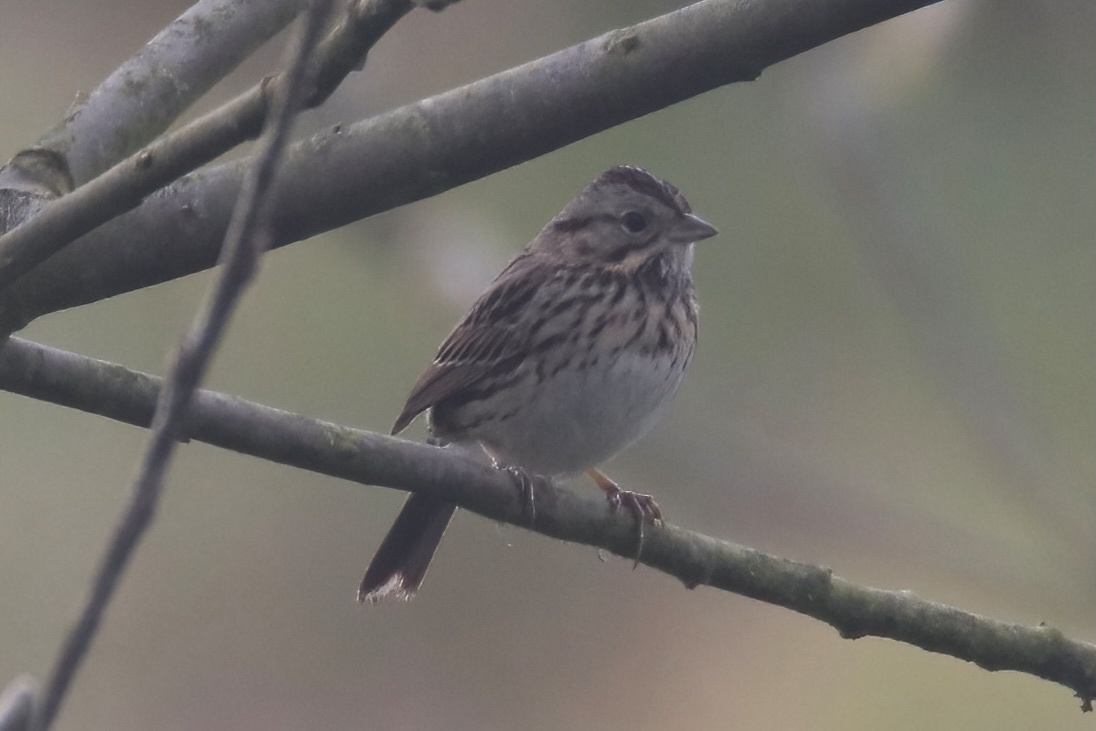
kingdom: Animalia
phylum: Chordata
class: Aves
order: Passeriformes
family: Passerellidae
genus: Melospiza
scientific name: Melospiza lincolnii
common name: Lincoln's sparrow
